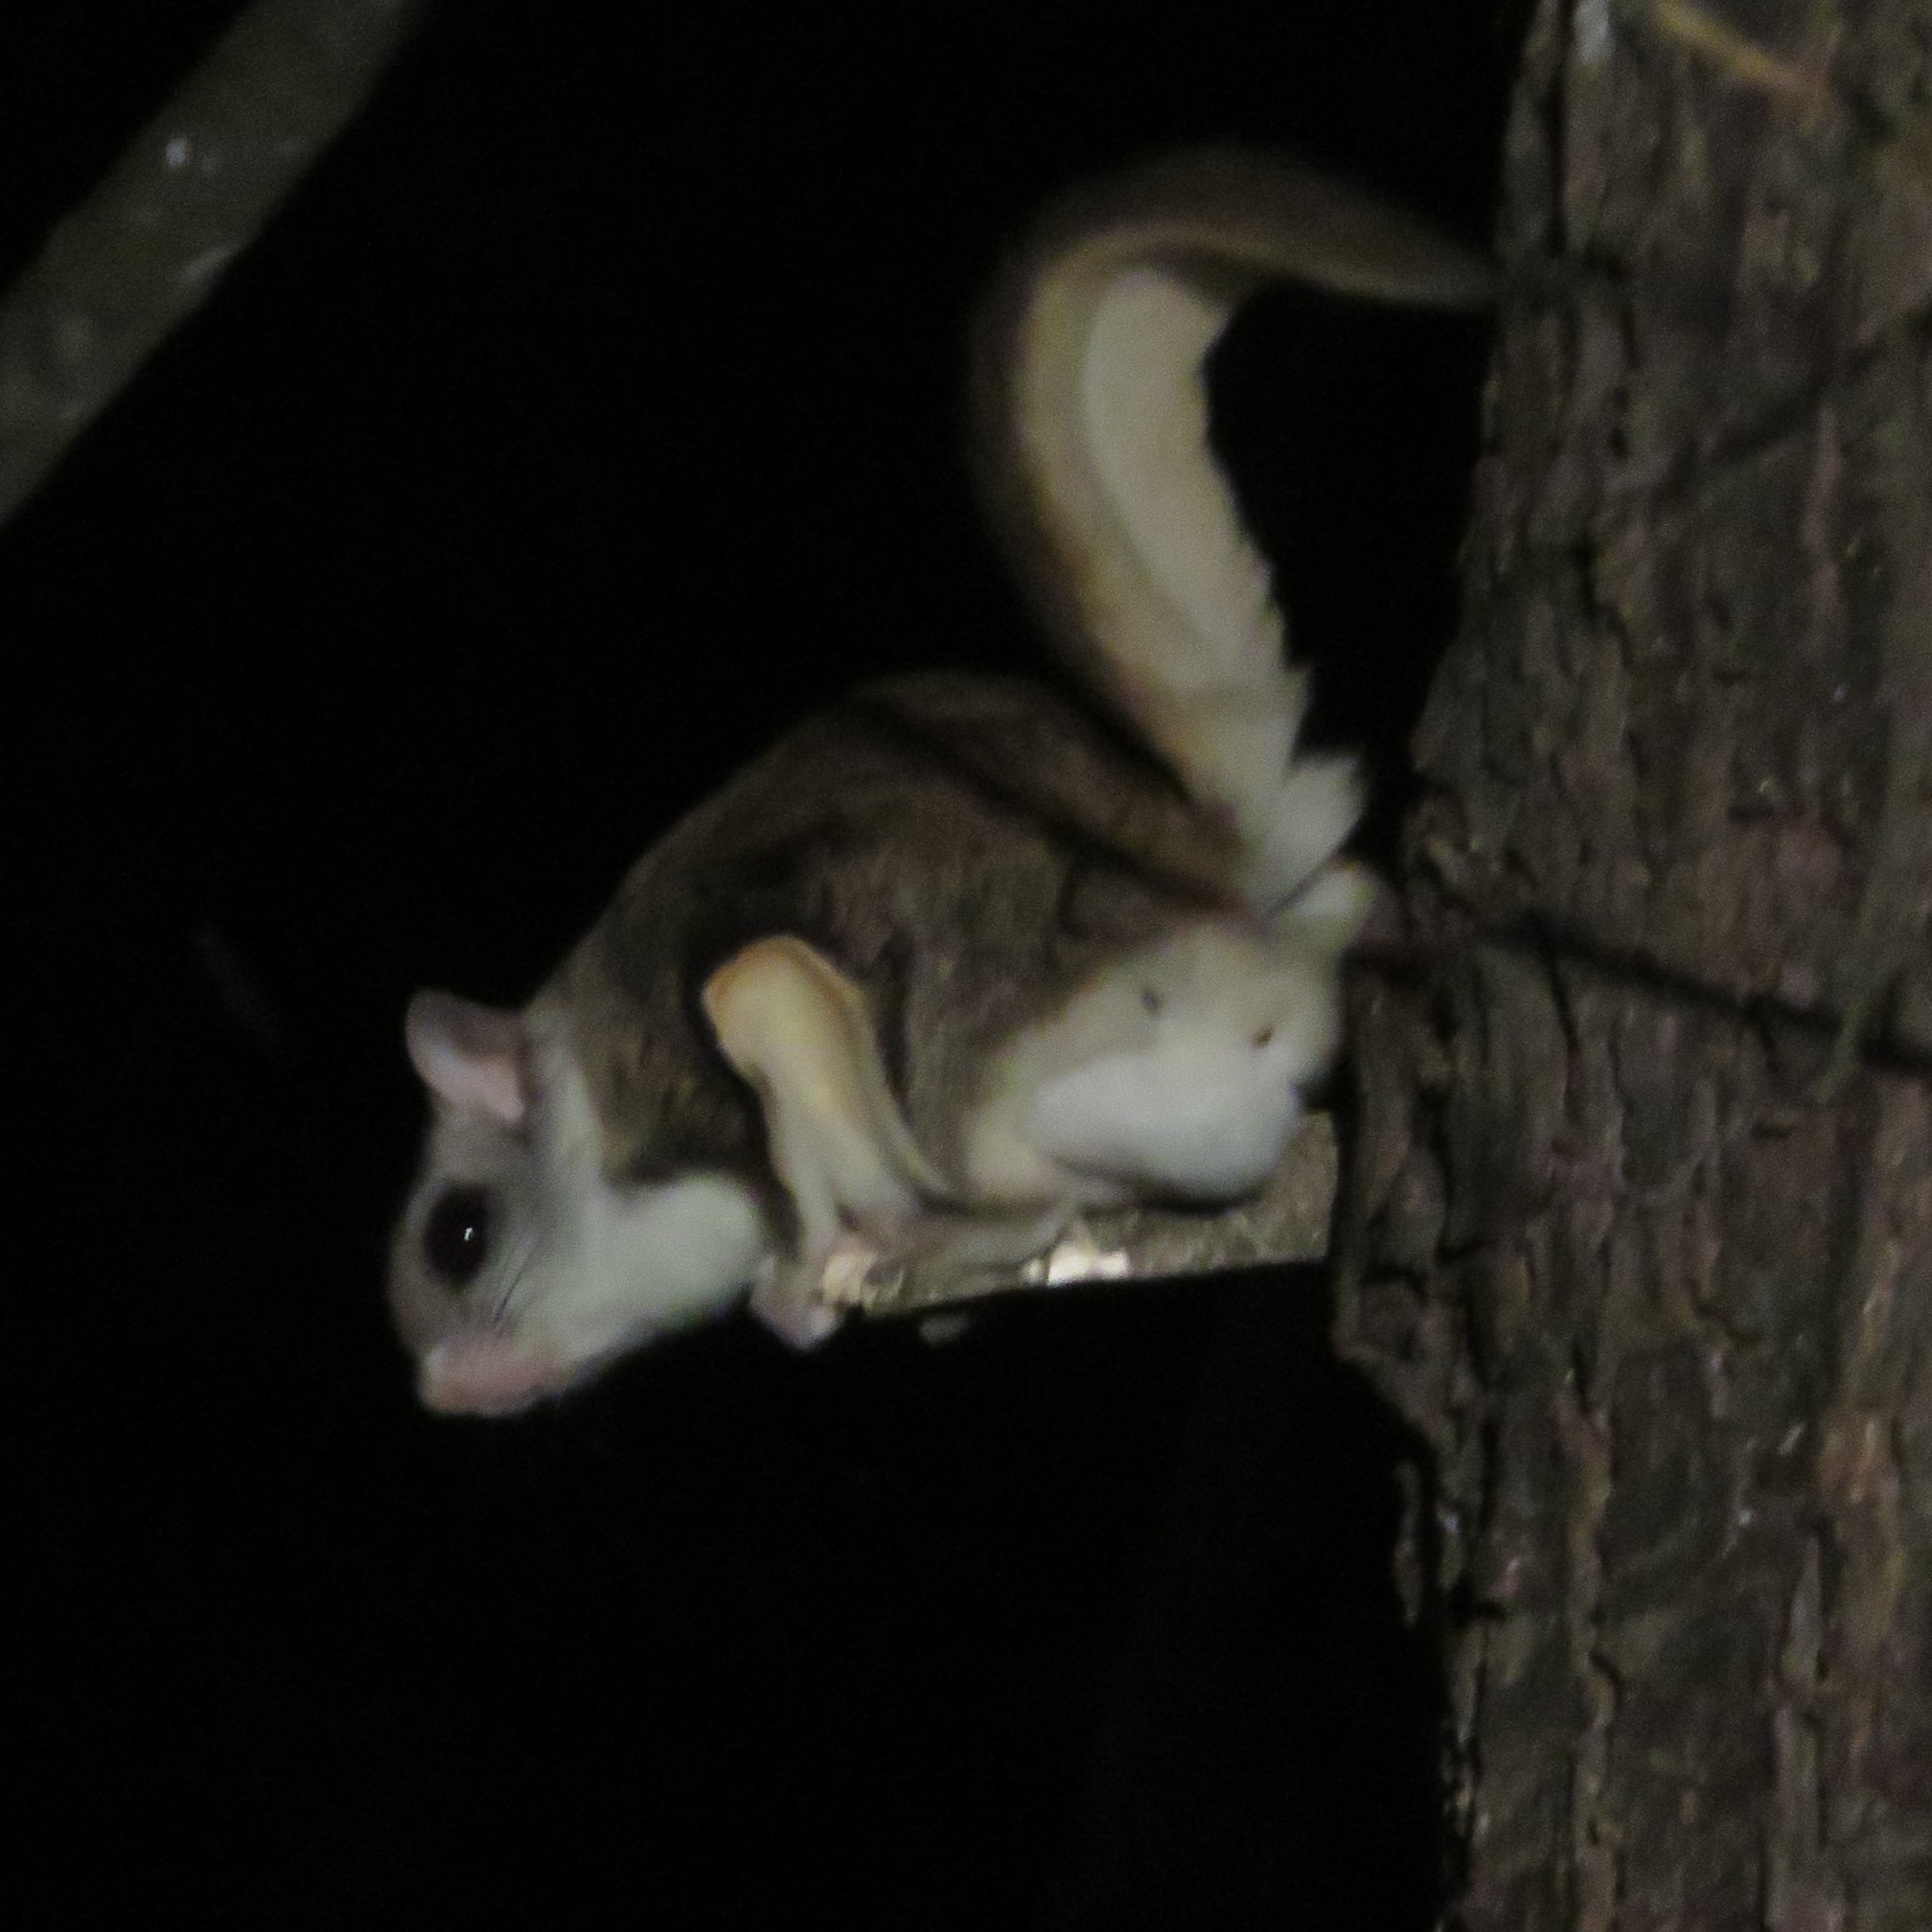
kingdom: Animalia
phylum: Chordata
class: Mammalia
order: Rodentia
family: Sciuridae
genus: Glaucomys
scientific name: Glaucomys volans
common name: Southern flying squirrel
